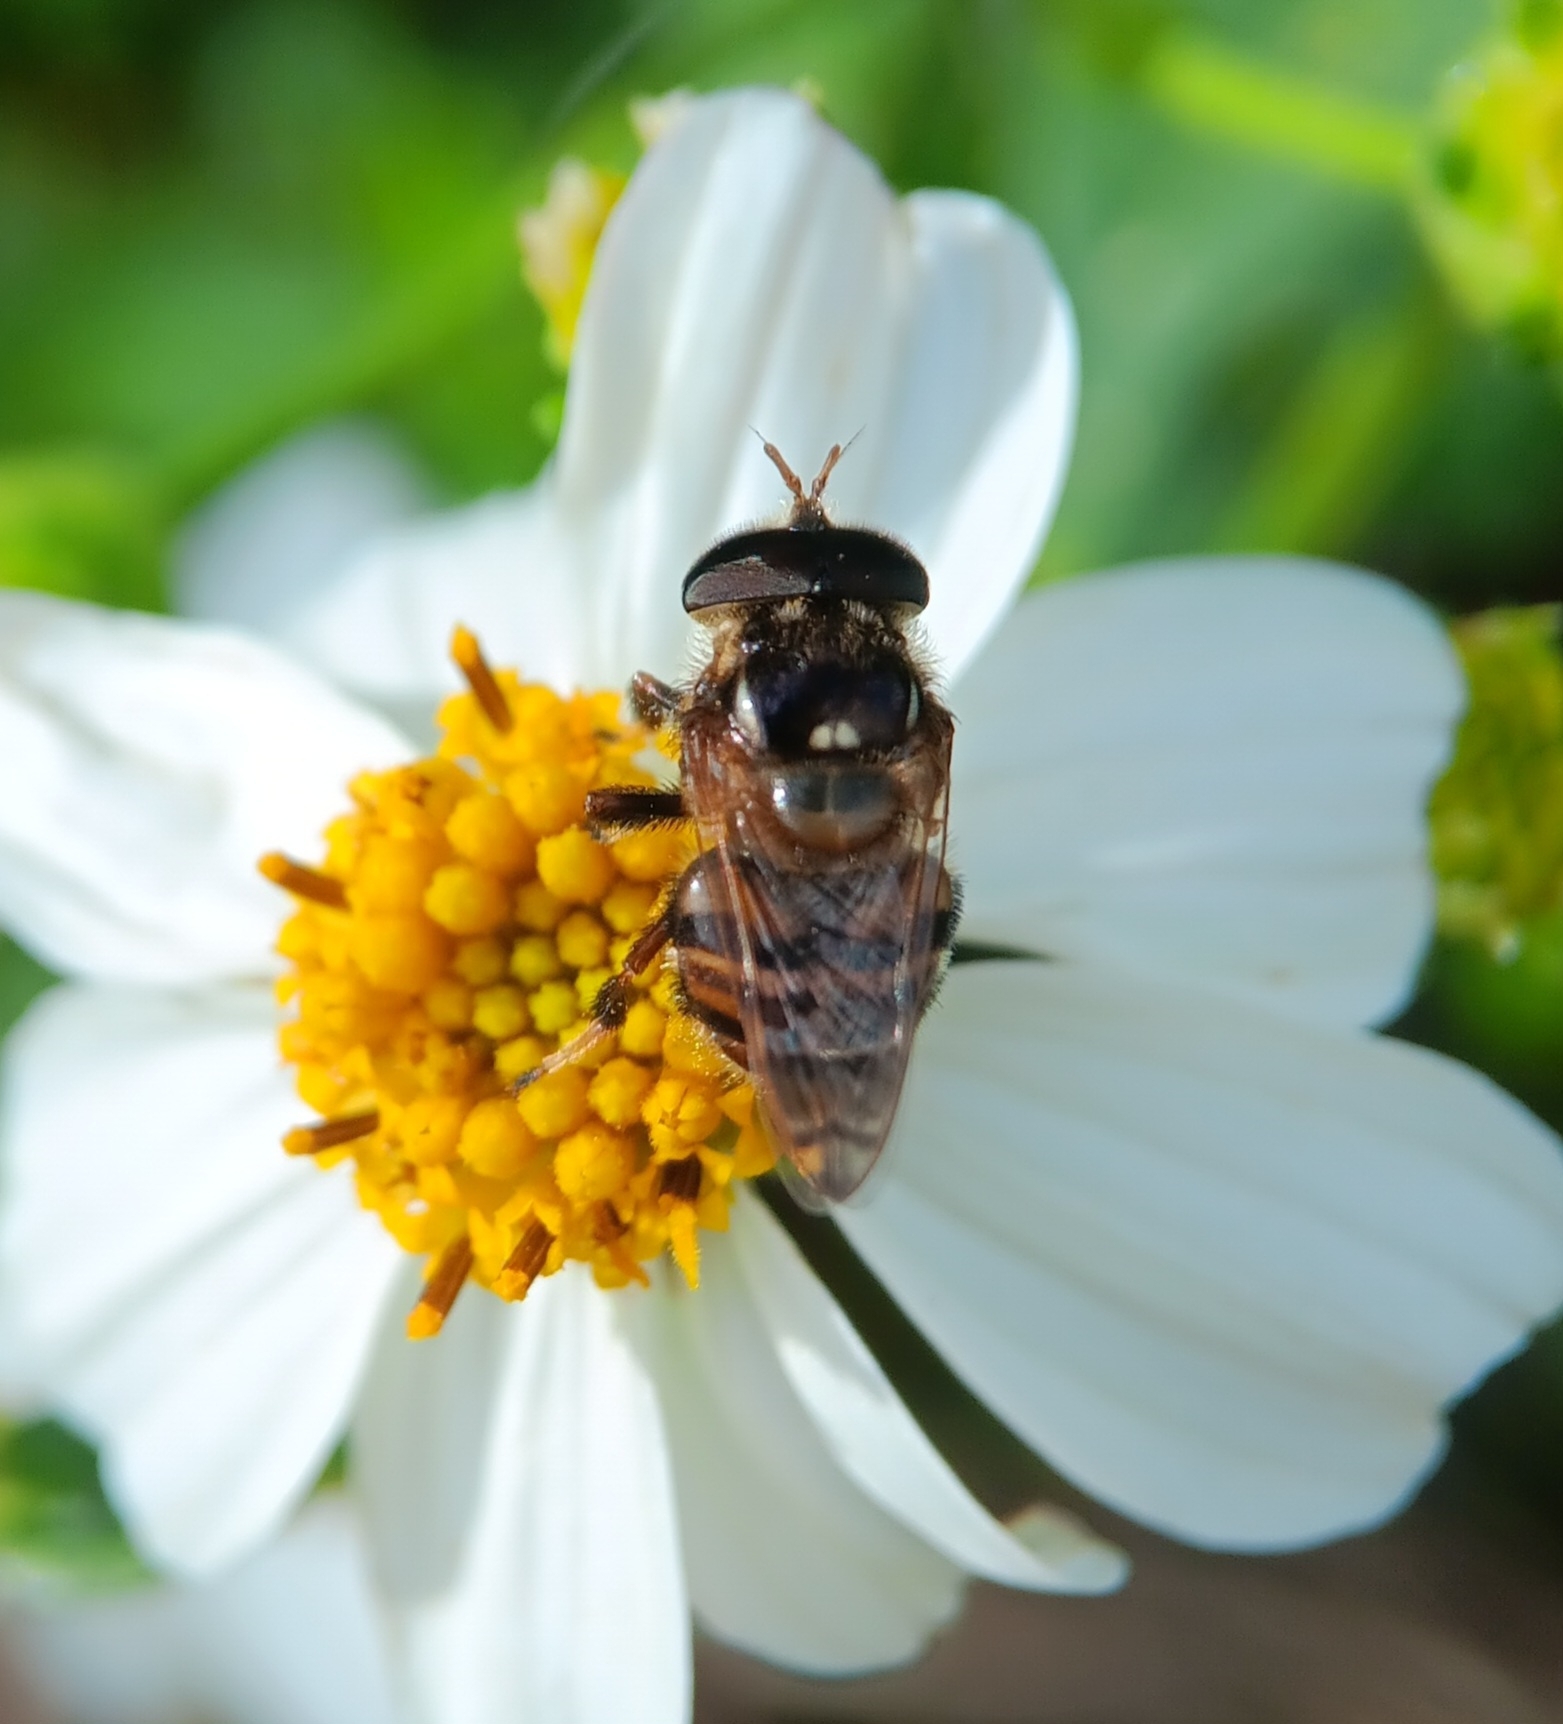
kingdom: Animalia
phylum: Arthropoda
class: Insecta
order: Diptera
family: Syrphidae
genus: Copestylum
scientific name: Copestylum tamaulipanum
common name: Syrphid fly
